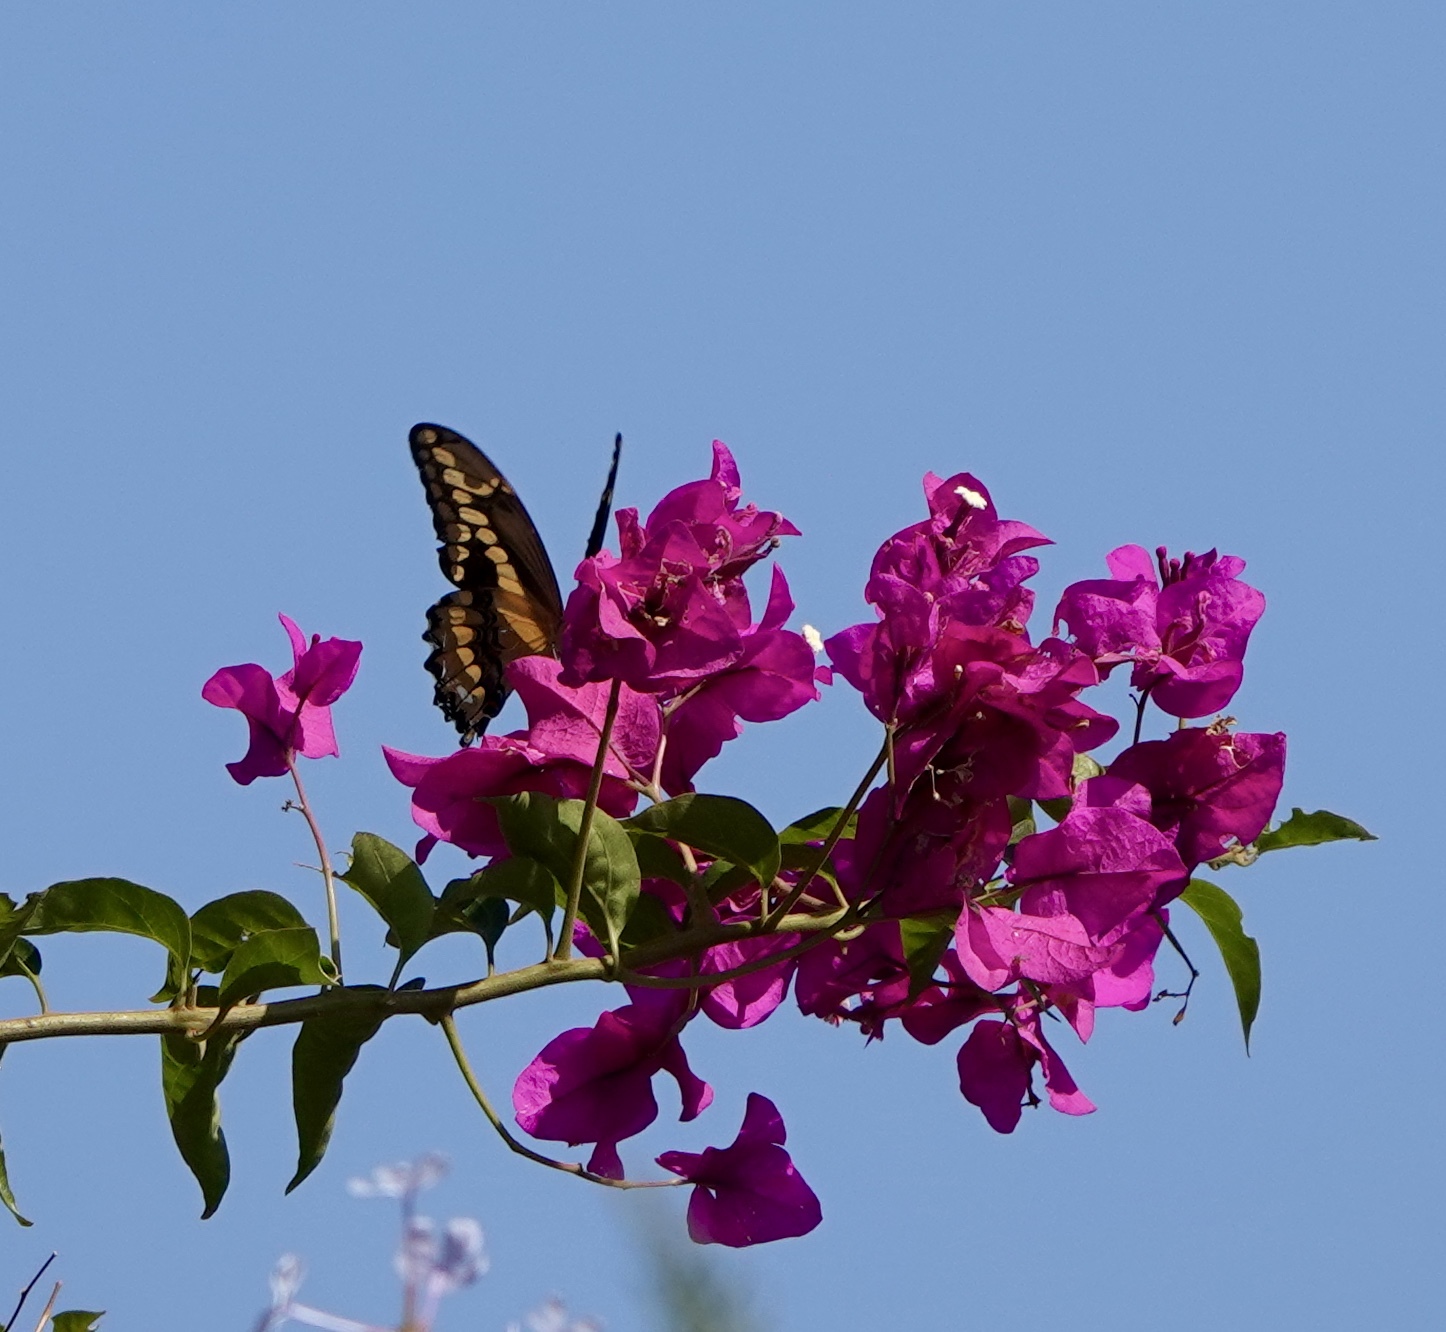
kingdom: Animalia
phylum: Arthropoda
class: Insecta
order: Lepidoptera
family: Papilionidae
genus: Papilio
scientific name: Papilio rumiko
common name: Western giant swallowtail
